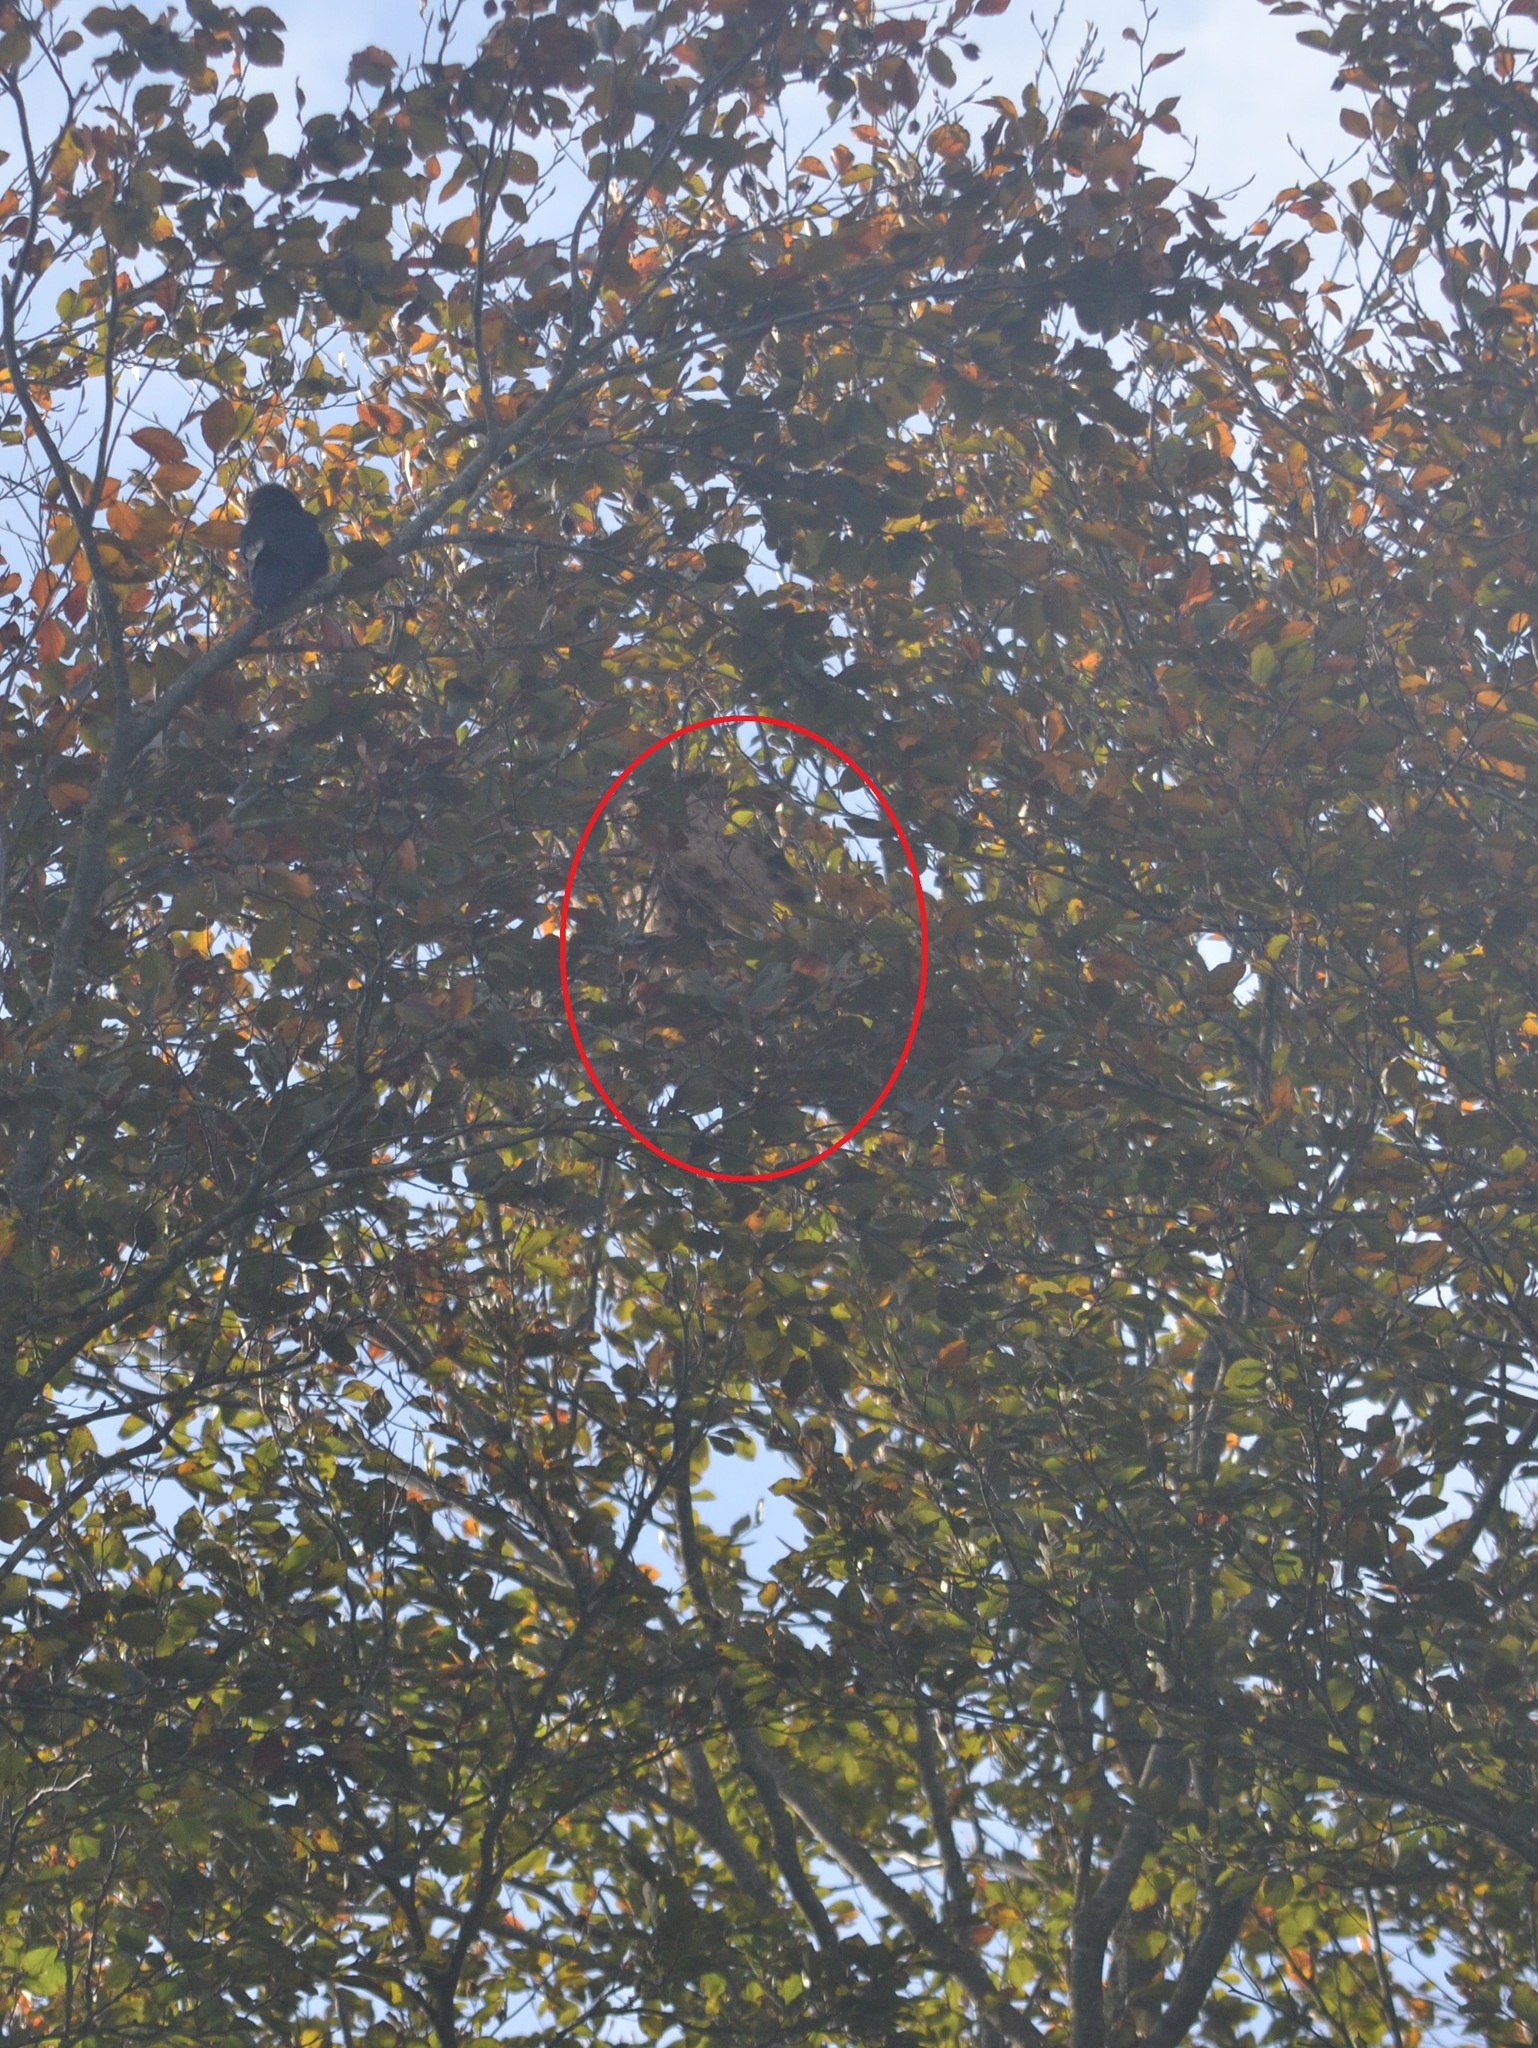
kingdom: Animalia
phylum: Arthropoda
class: Insecta
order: Hymenoptera
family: Vespidae
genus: Vespa
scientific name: Vespa velutina
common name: Asian hornet
